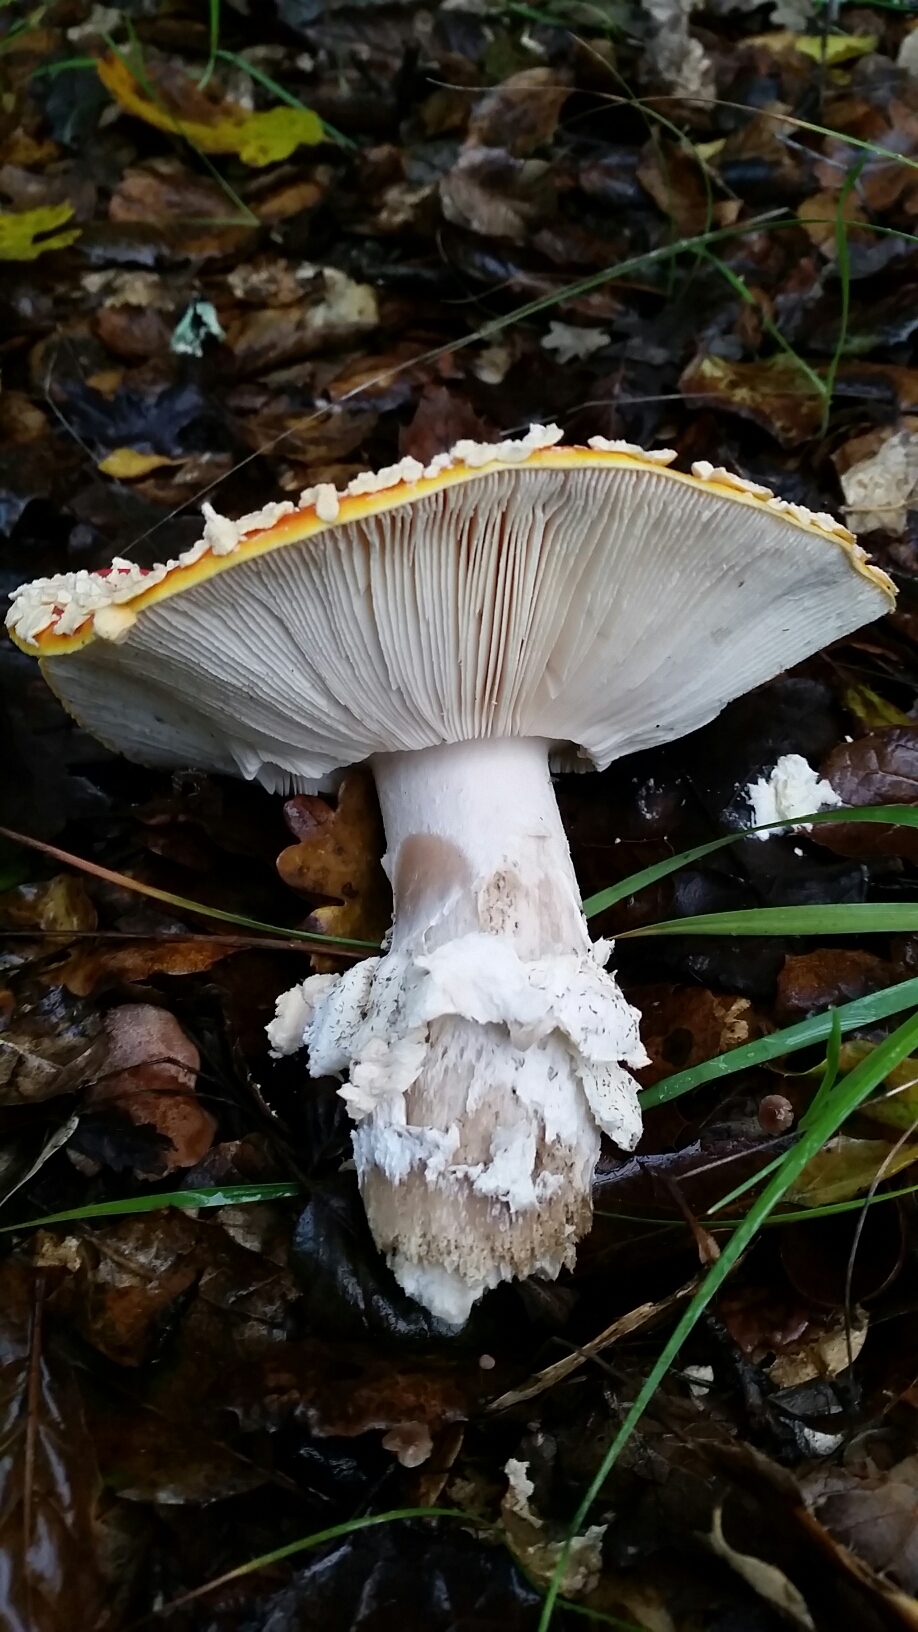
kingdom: Fungi
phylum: Basidiomycota
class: Agaricomycetes
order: Agaricales
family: Amanitaceae
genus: Amanita
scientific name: Amanita muscaria
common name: Fly agaric
